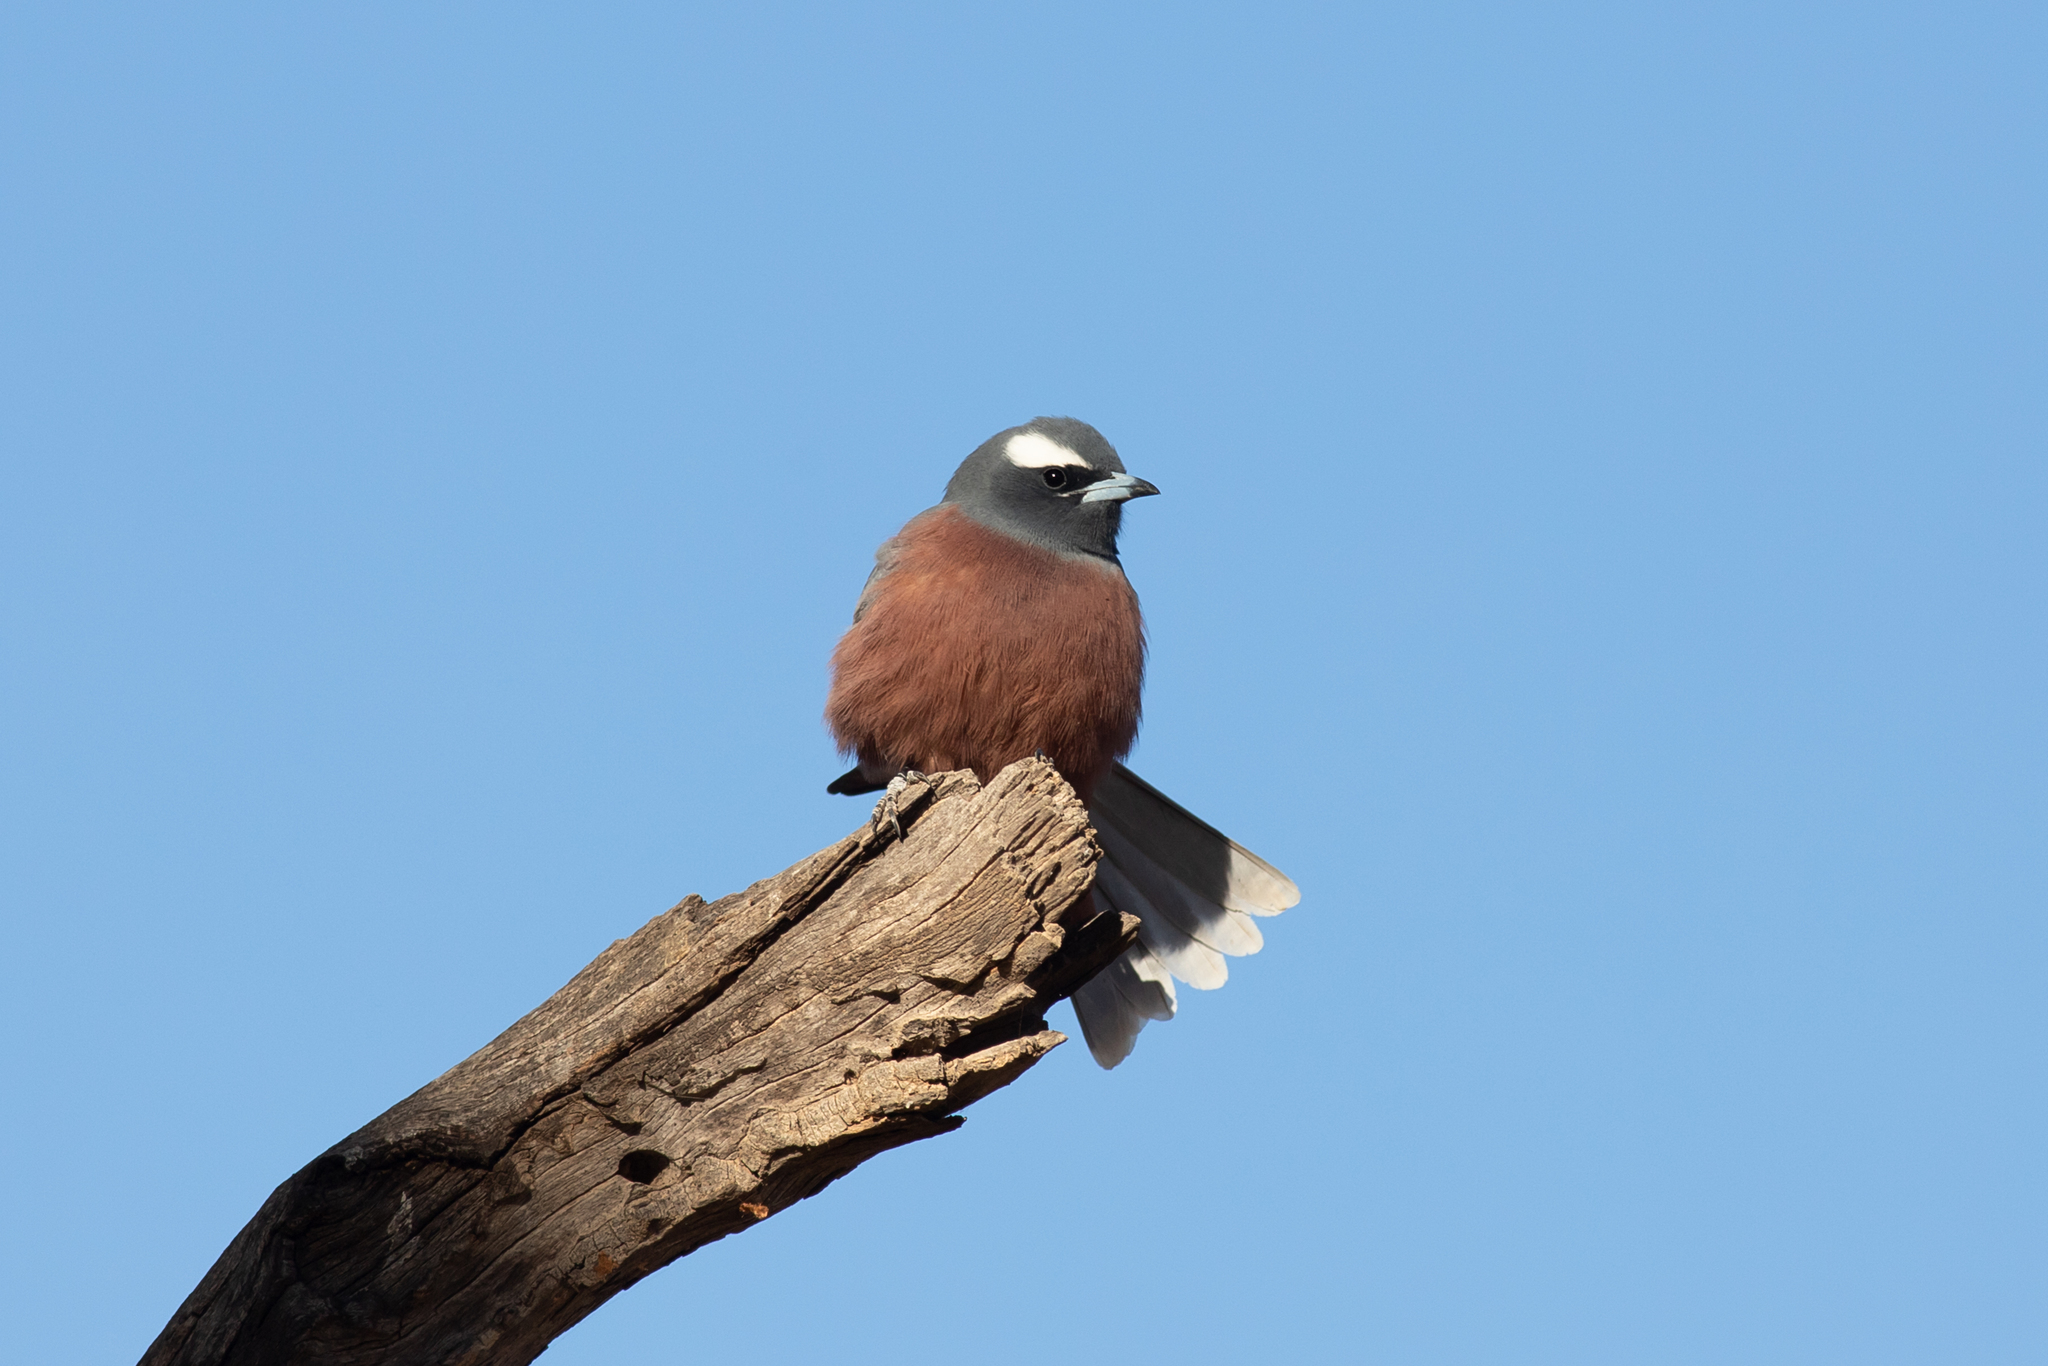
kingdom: Animalia
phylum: Chordata
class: Aves
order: Passeriformes
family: Artamidae
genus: Artamus
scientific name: Artamus superciliosus
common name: White-browed woodswallow
